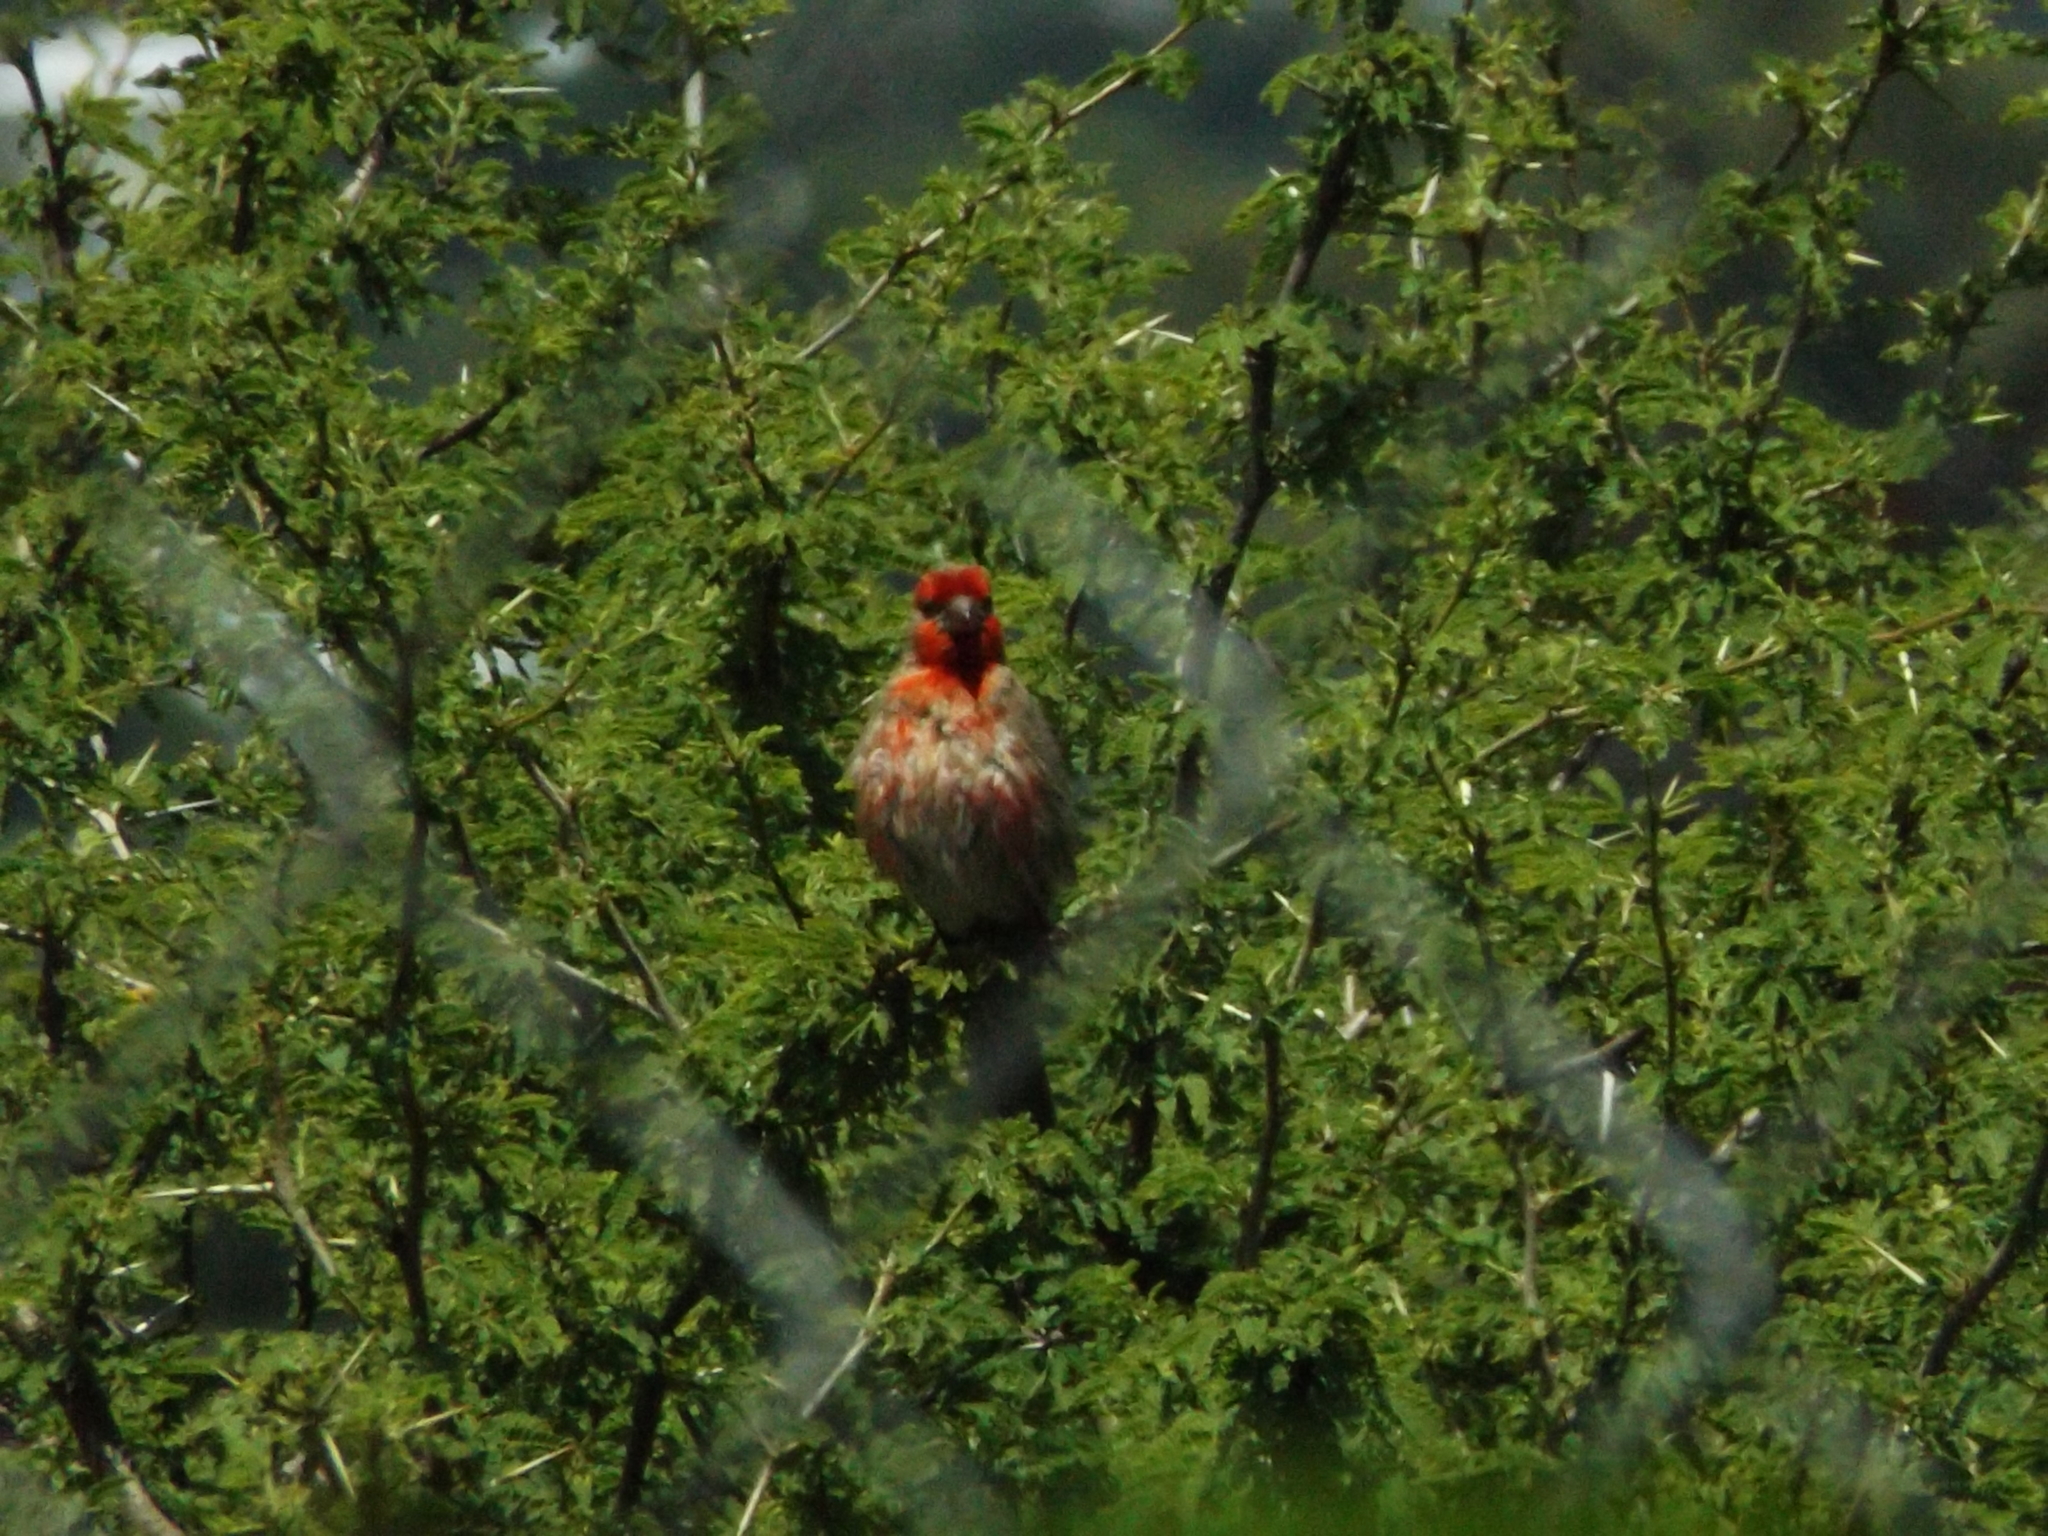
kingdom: Animalia
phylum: Chordata
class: Aves
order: Passeriformes
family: Fringillidae
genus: Haemorhous
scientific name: Haemorhous mexicanus
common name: House finch
